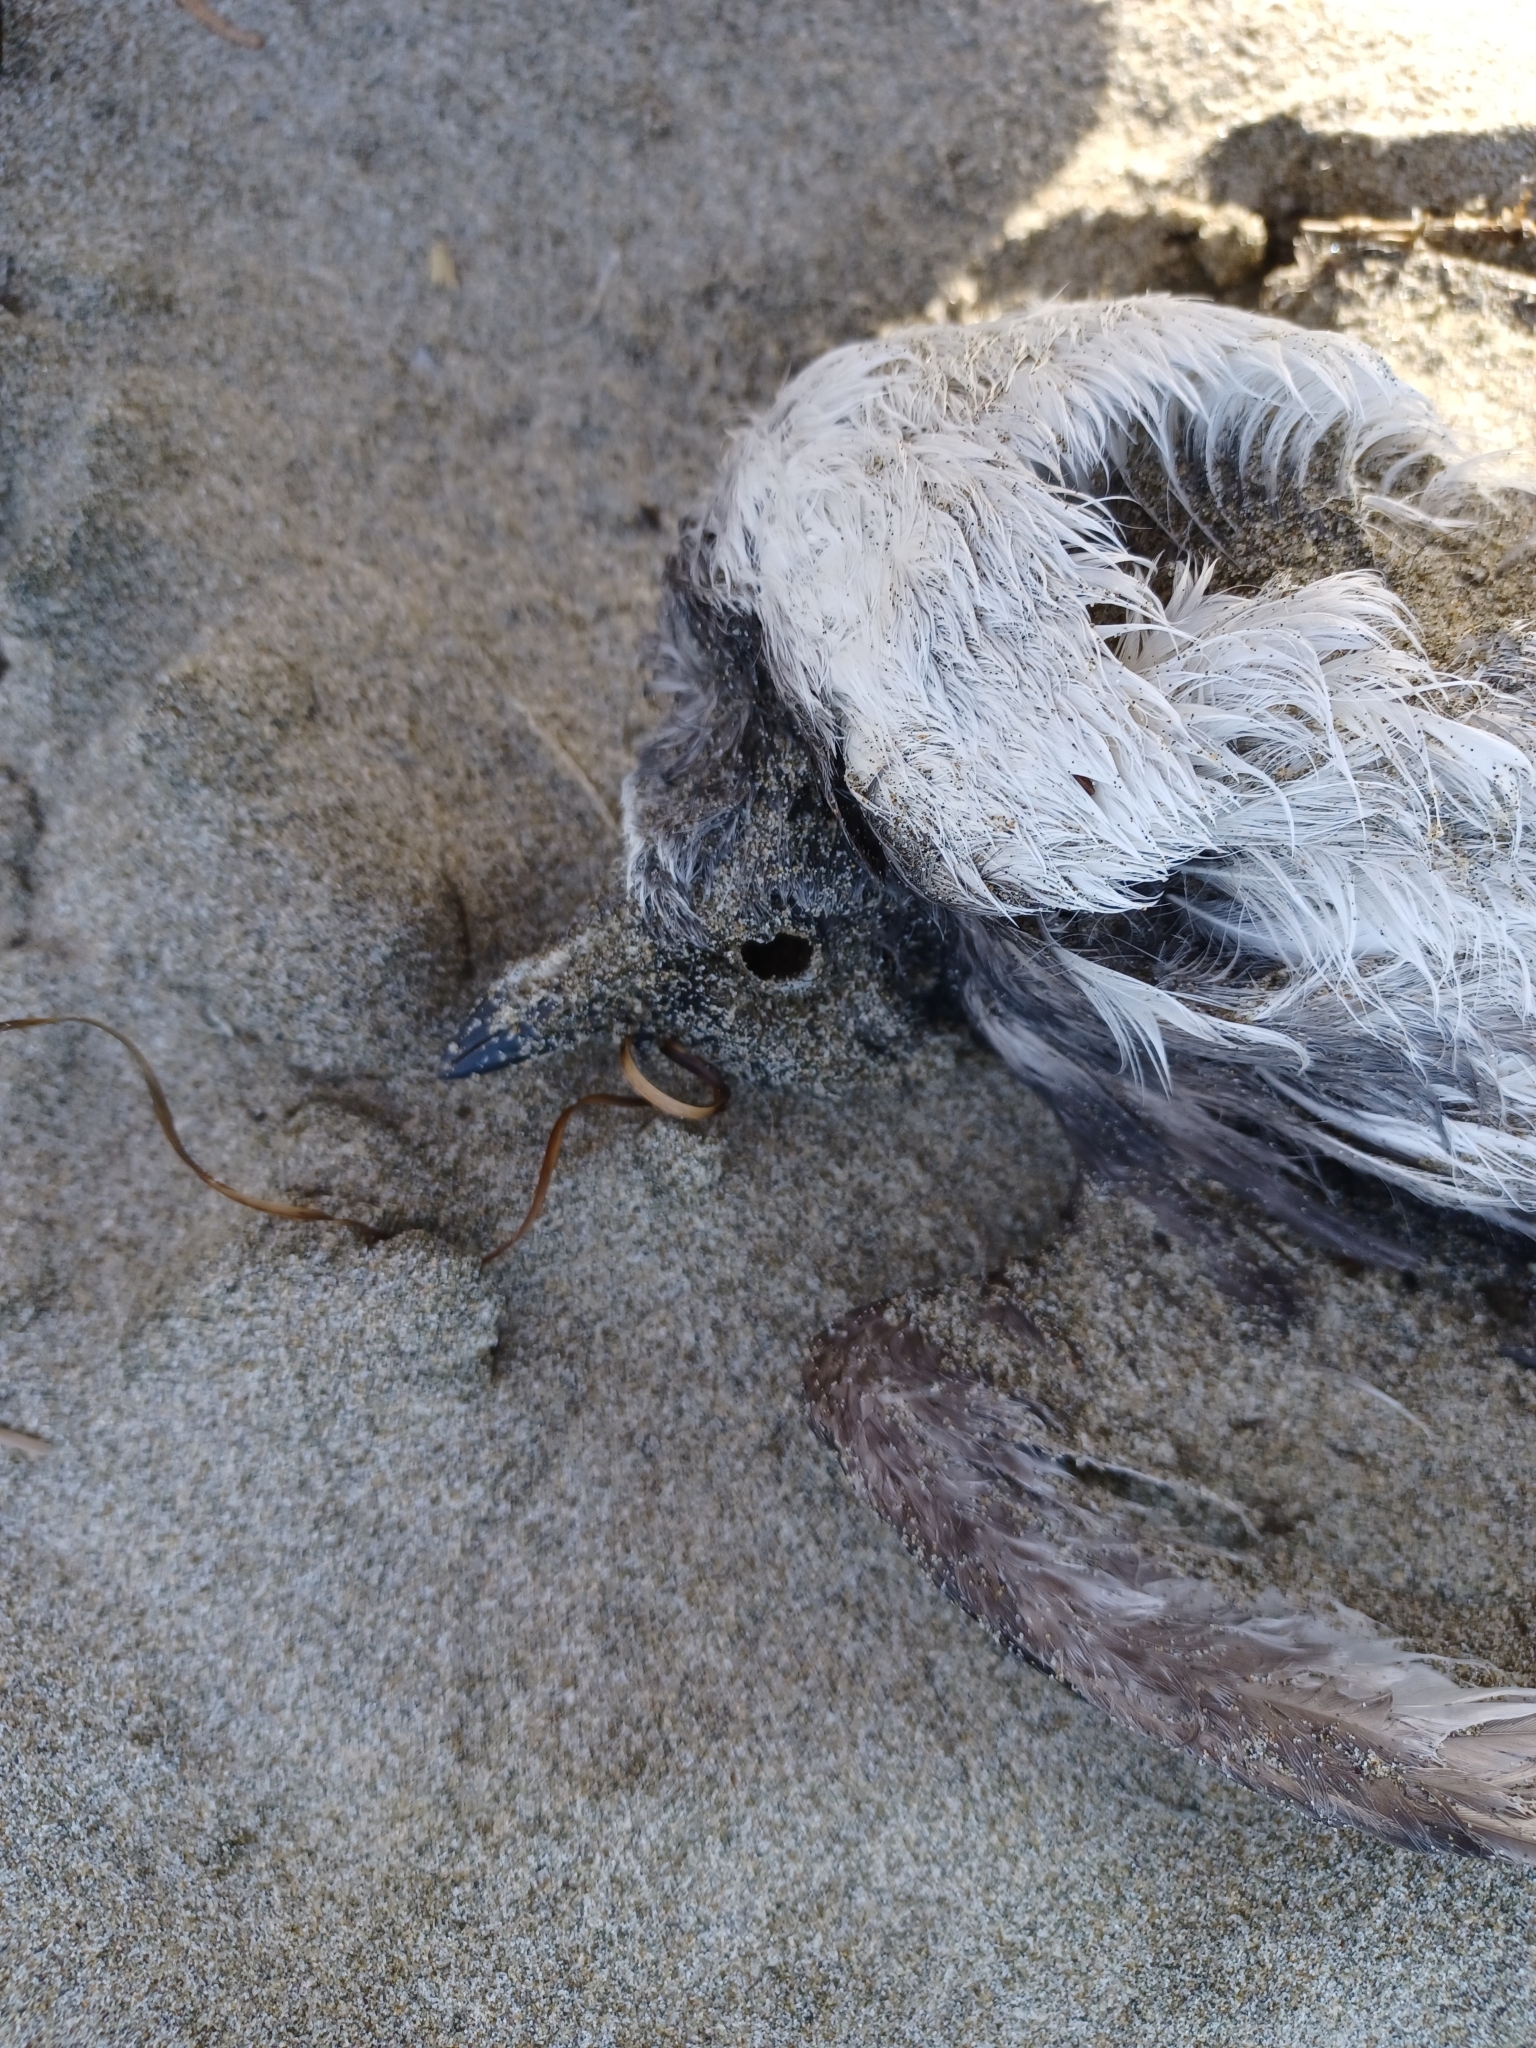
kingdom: Animalia
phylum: Chordata
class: Aves
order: Charadriiformes
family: Alcidae
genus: Ptychoramphus
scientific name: Ptychoramphus aleuticus
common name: Cassin's auklet
